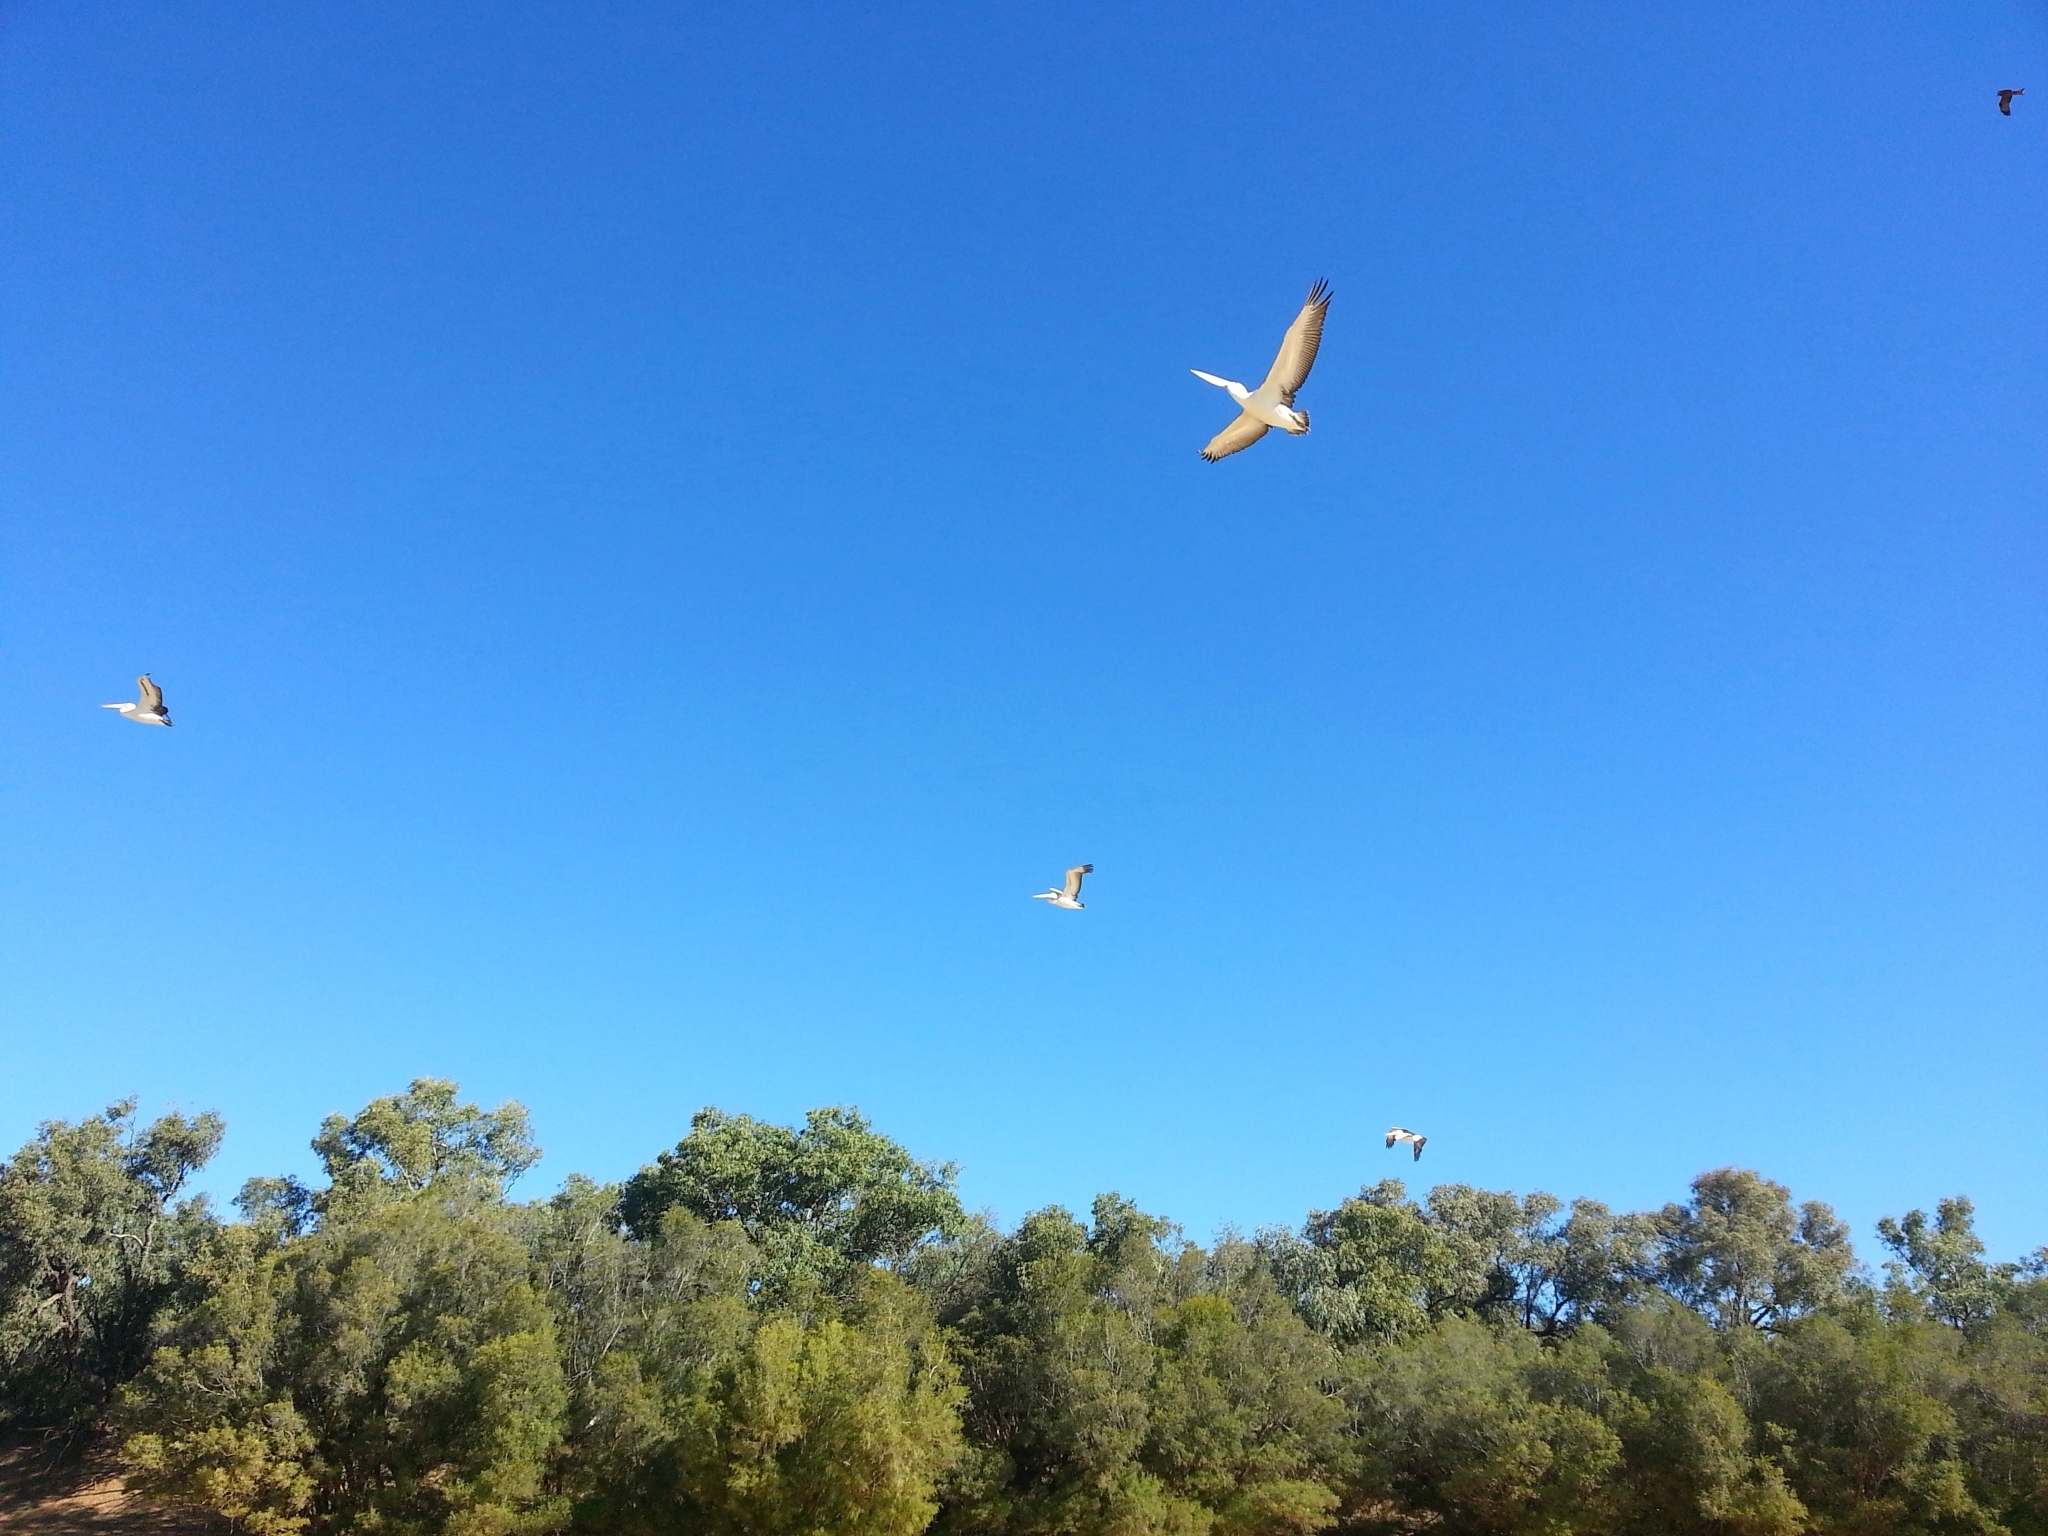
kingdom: Animalia
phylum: Chordata
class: Aves
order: Pelecaniformes
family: Pelecanidae
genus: Pelecanus
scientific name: Pelecanus conspicillatus
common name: Australian pelican
